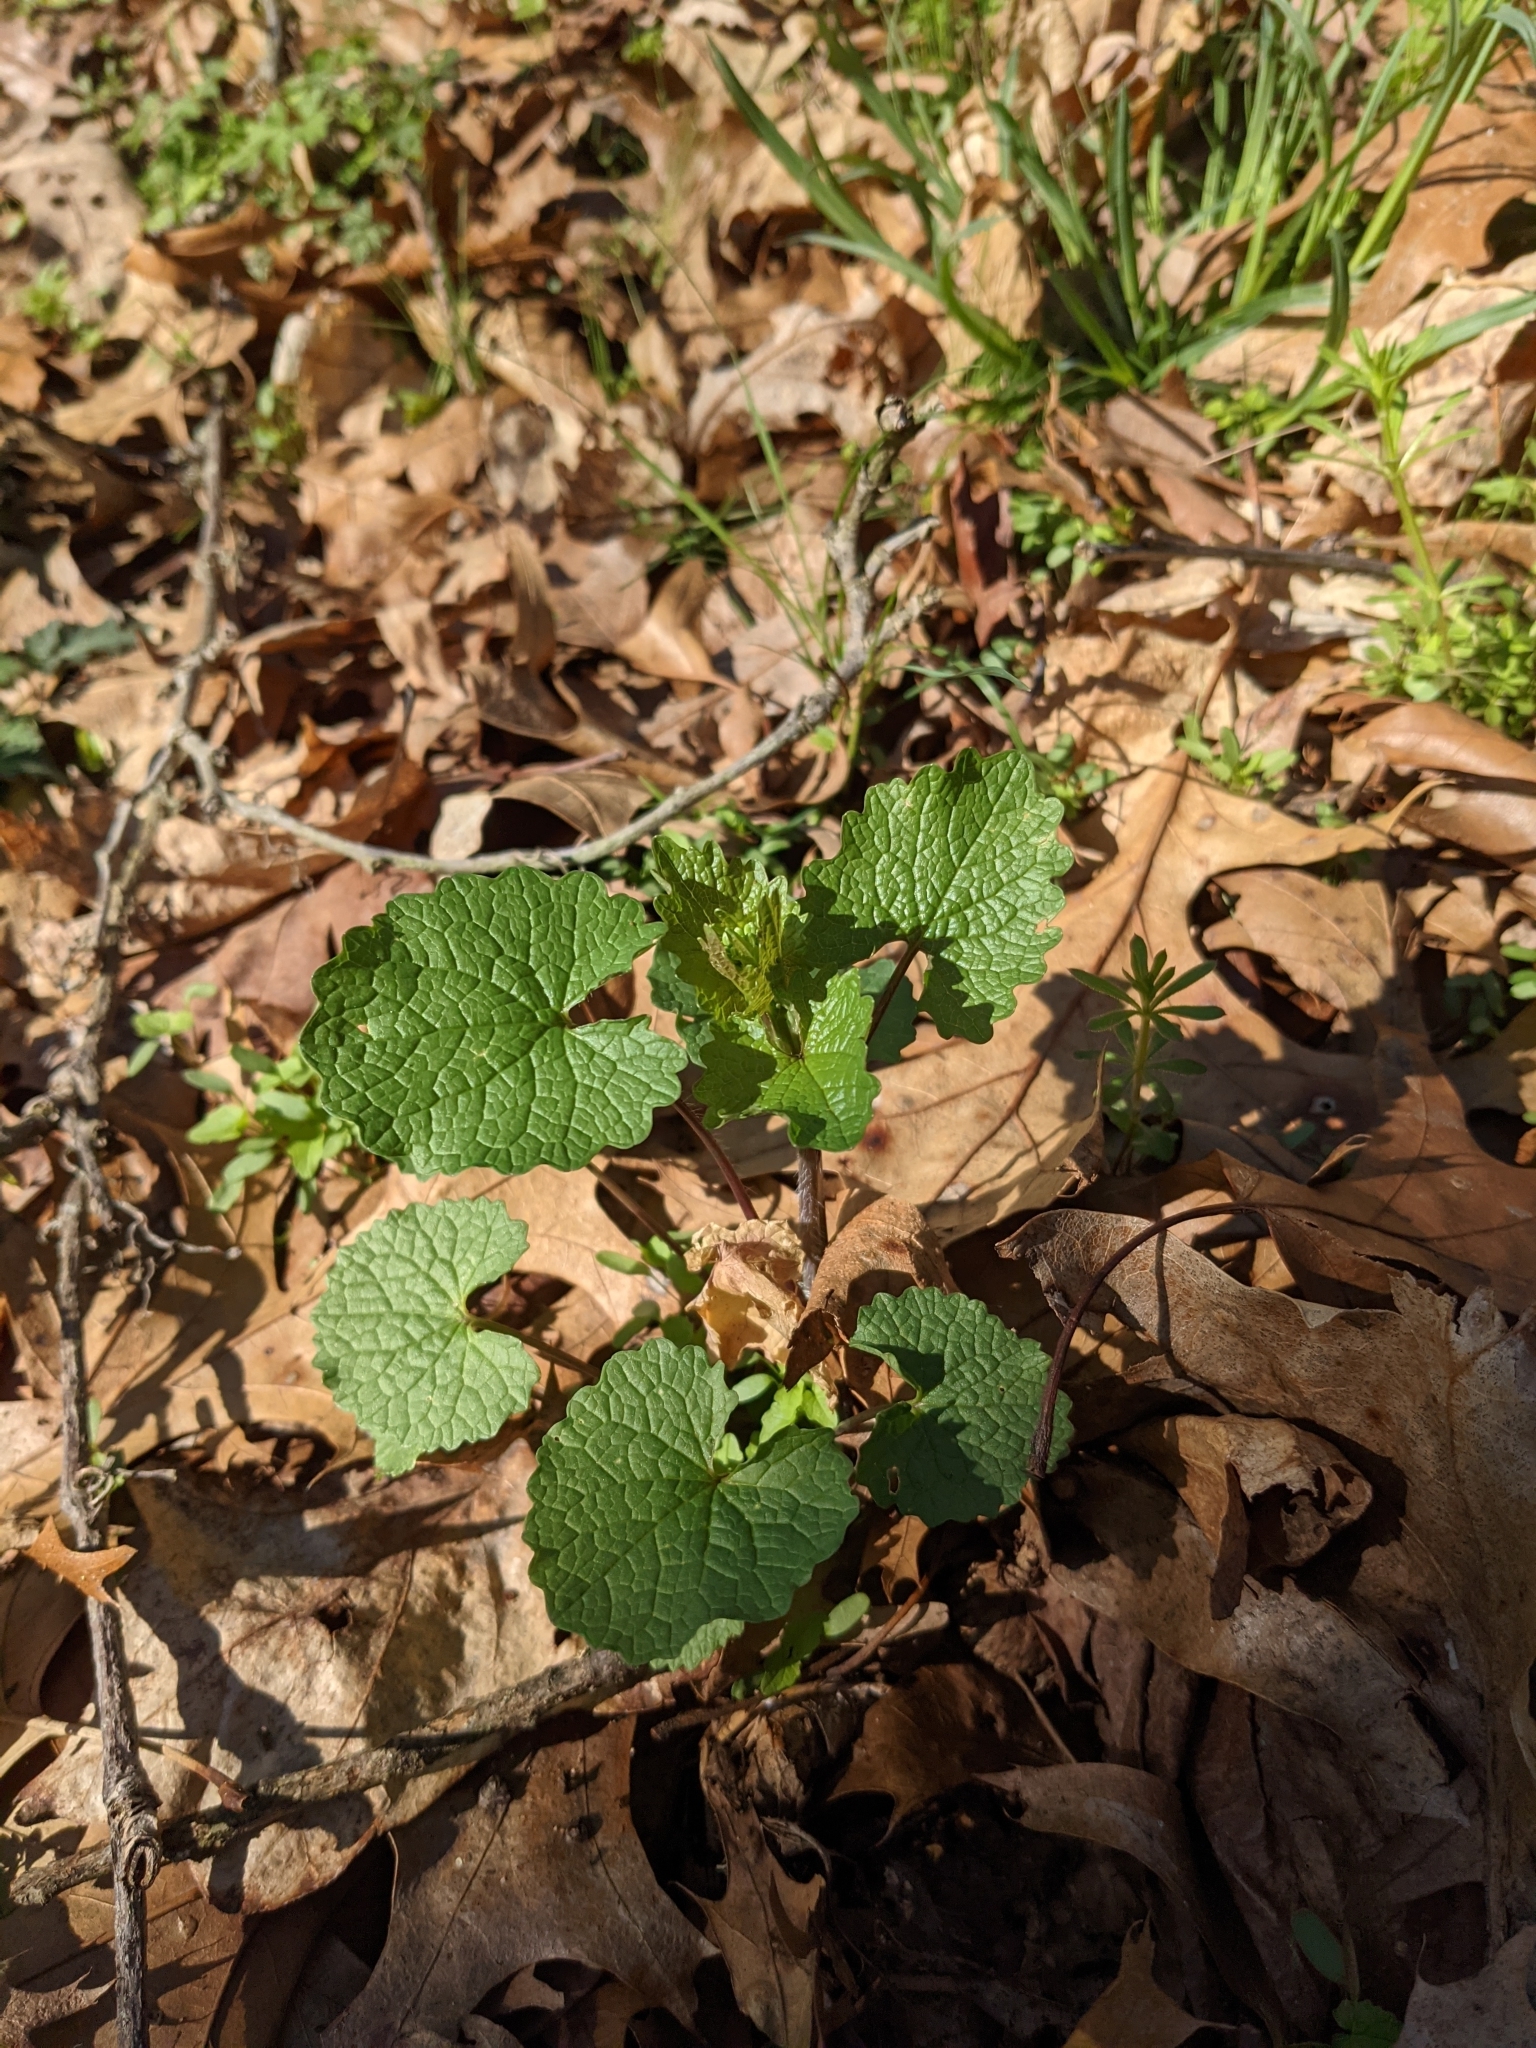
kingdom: Plantae
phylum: Tracheophyta
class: Magnoliopsida
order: Brassicales
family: Brassicaceae
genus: Alliaria
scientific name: Alliaria petiolata
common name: Garlic mustard
